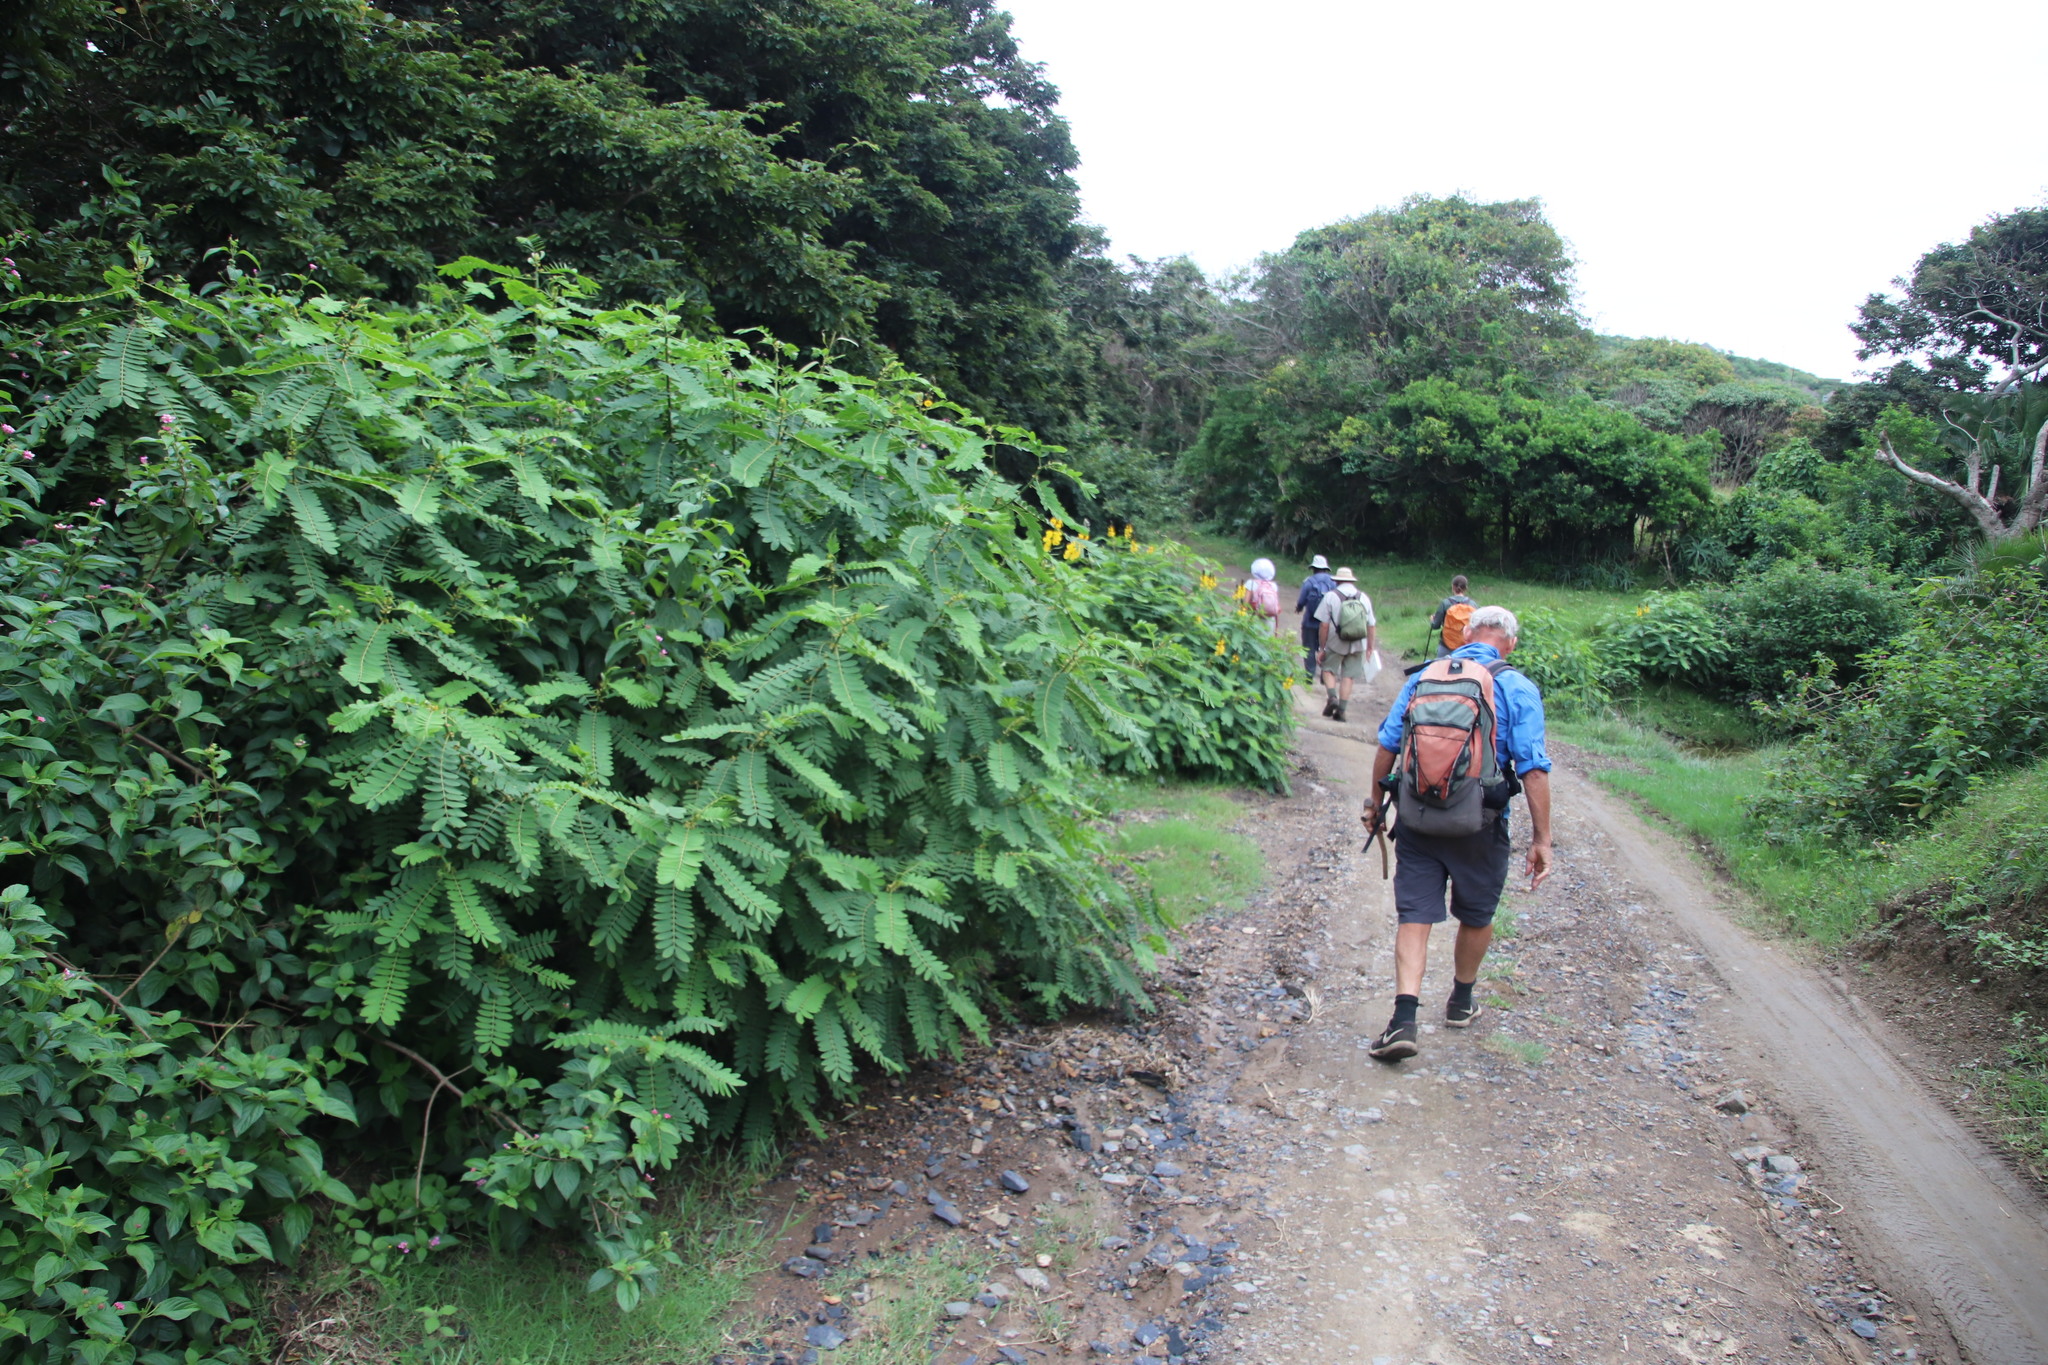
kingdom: Plantae
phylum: Tracheophyta
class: Magnoliopsida
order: Fabales
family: Fabaceae
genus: Senna
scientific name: Senna didymobotrya
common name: African senna
